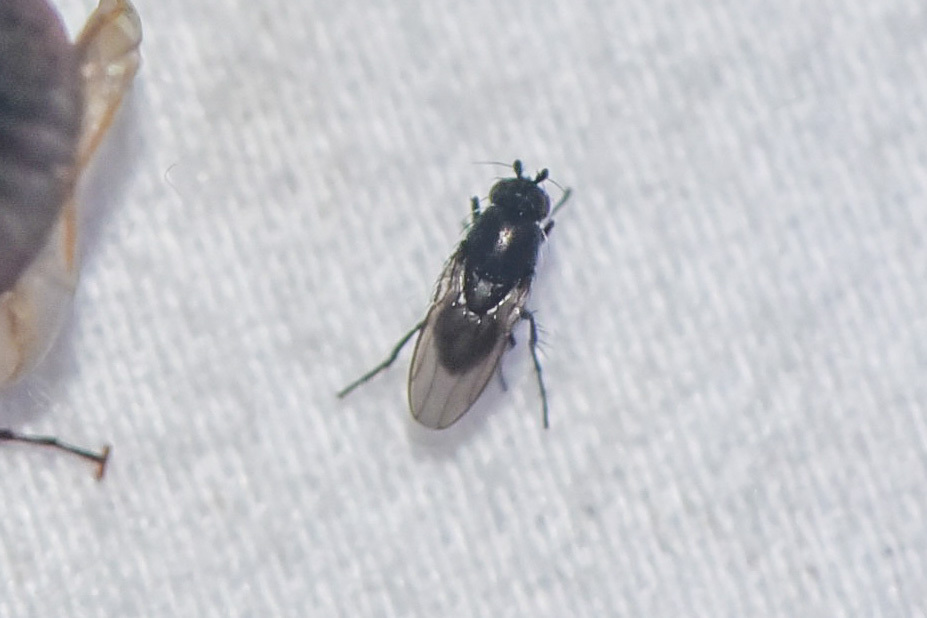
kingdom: Animalia
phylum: Arthropoda
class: Insecta
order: Diptera
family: Sphaeroceridae
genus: Leptocera
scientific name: Leptocera
